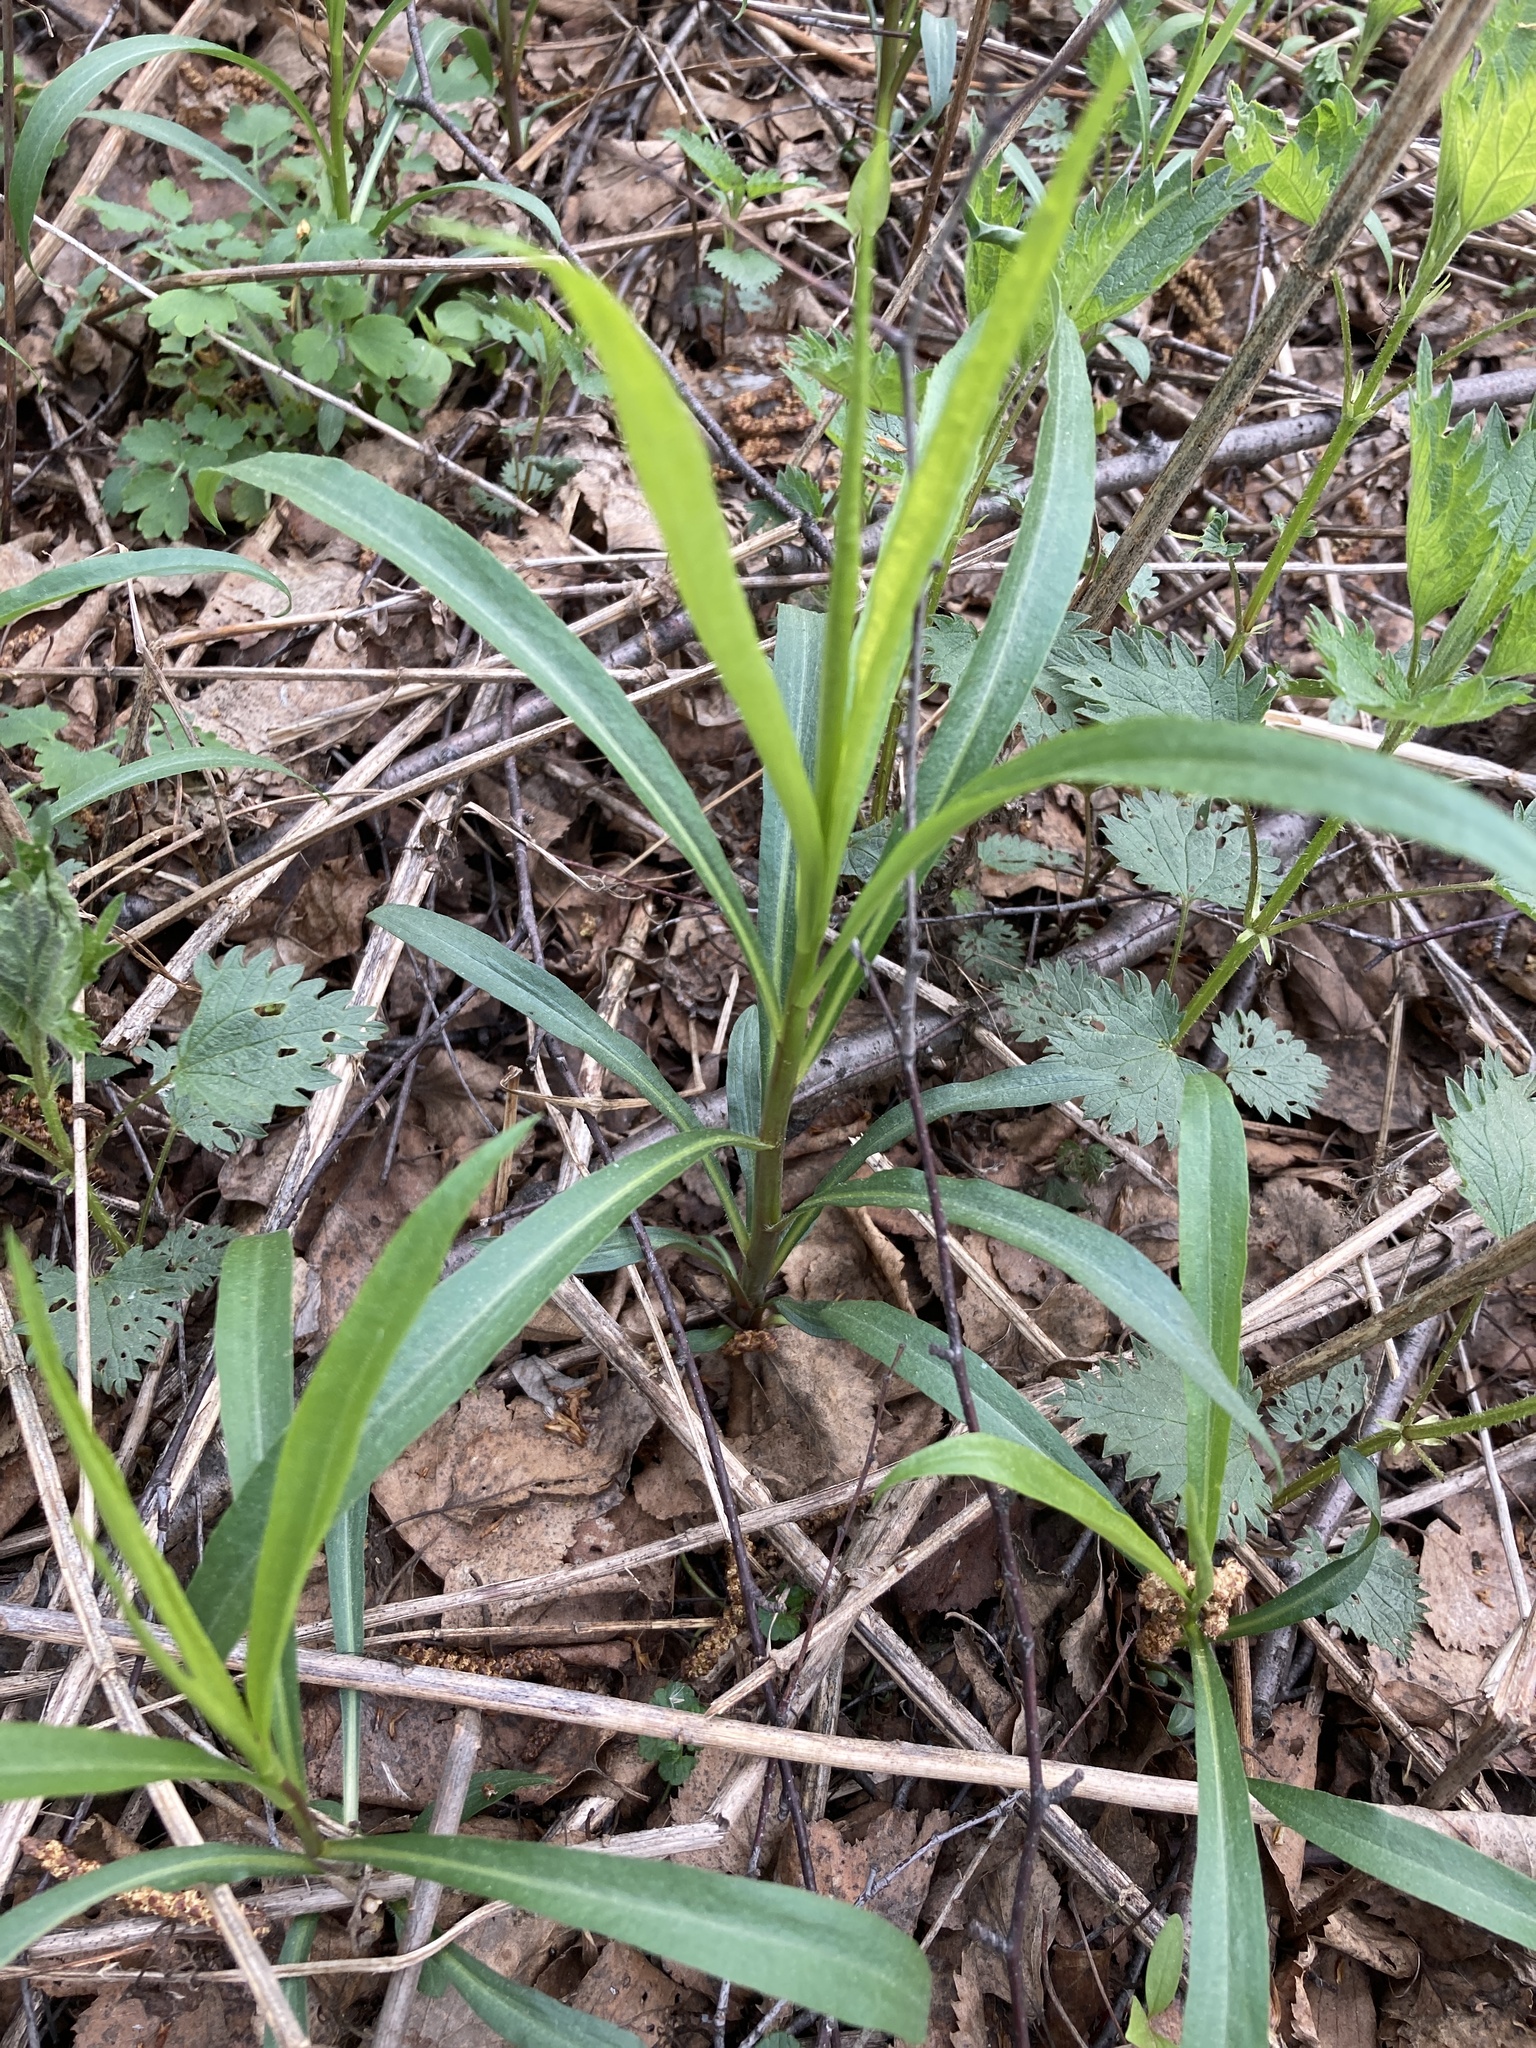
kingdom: Plantae
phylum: Tracheophyta
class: Magnoliopsida
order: Asterales
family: Asteraceae
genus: Solidago
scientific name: Solidago gigantea
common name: Giant goldenrod
